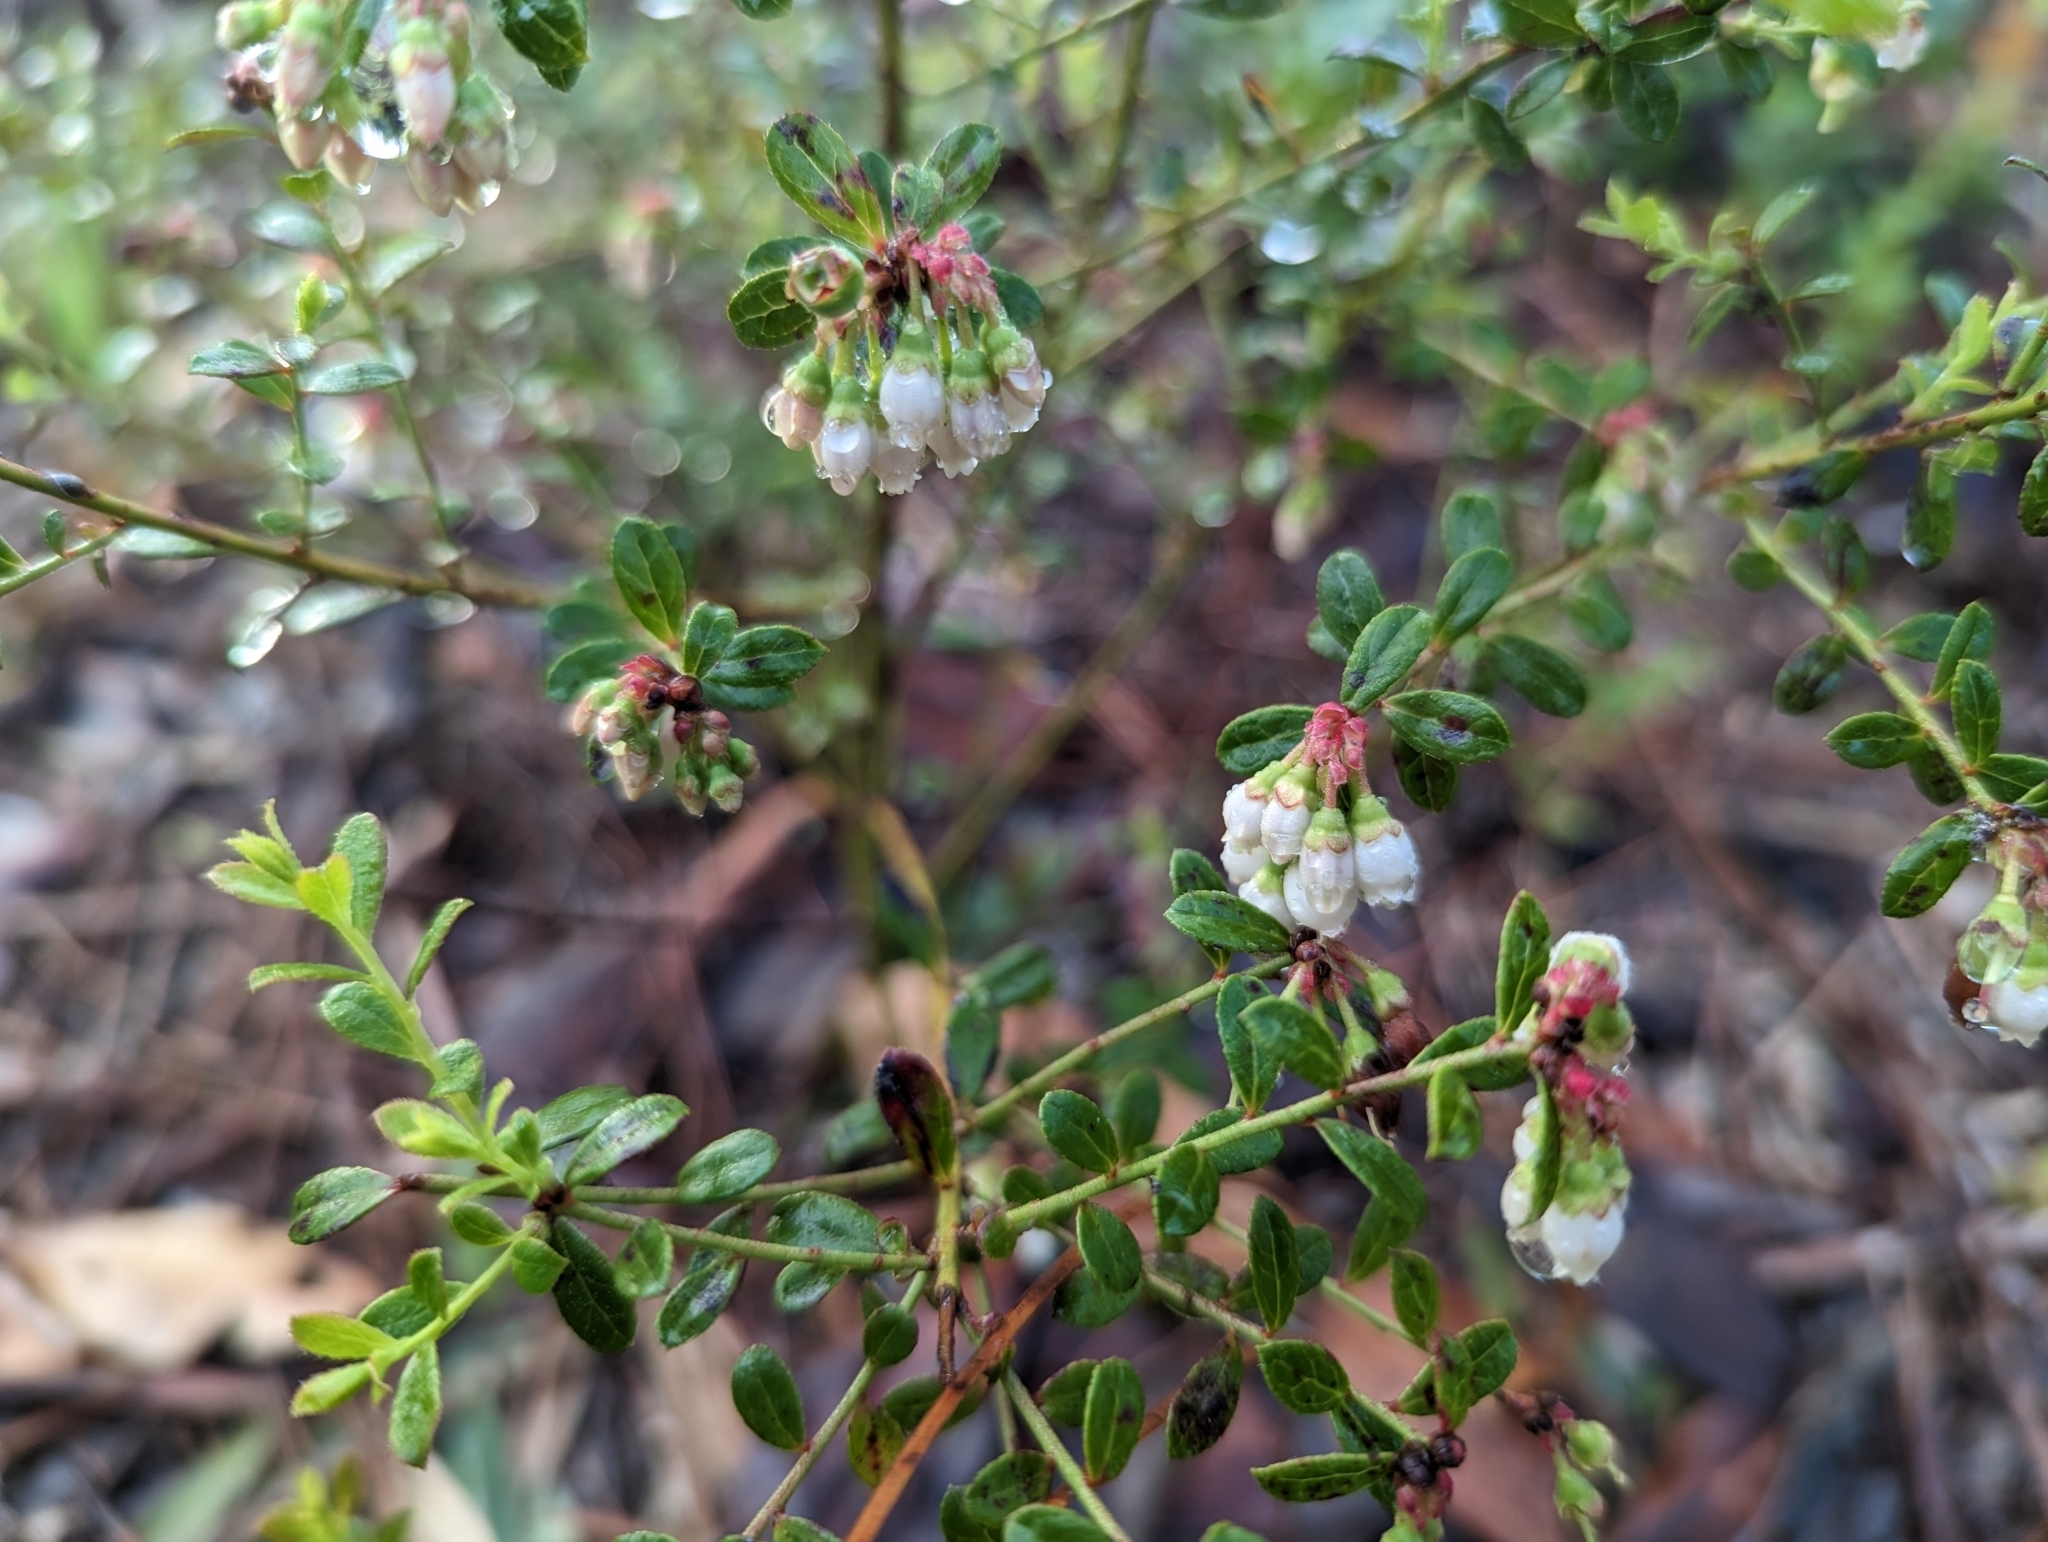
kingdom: Plantae
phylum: Tracheophyta
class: Magnoliopsida
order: Ericales
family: Ericaceae
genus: Vaccinium
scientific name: Vaccinium myrsinites
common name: Evergreen blueberry
